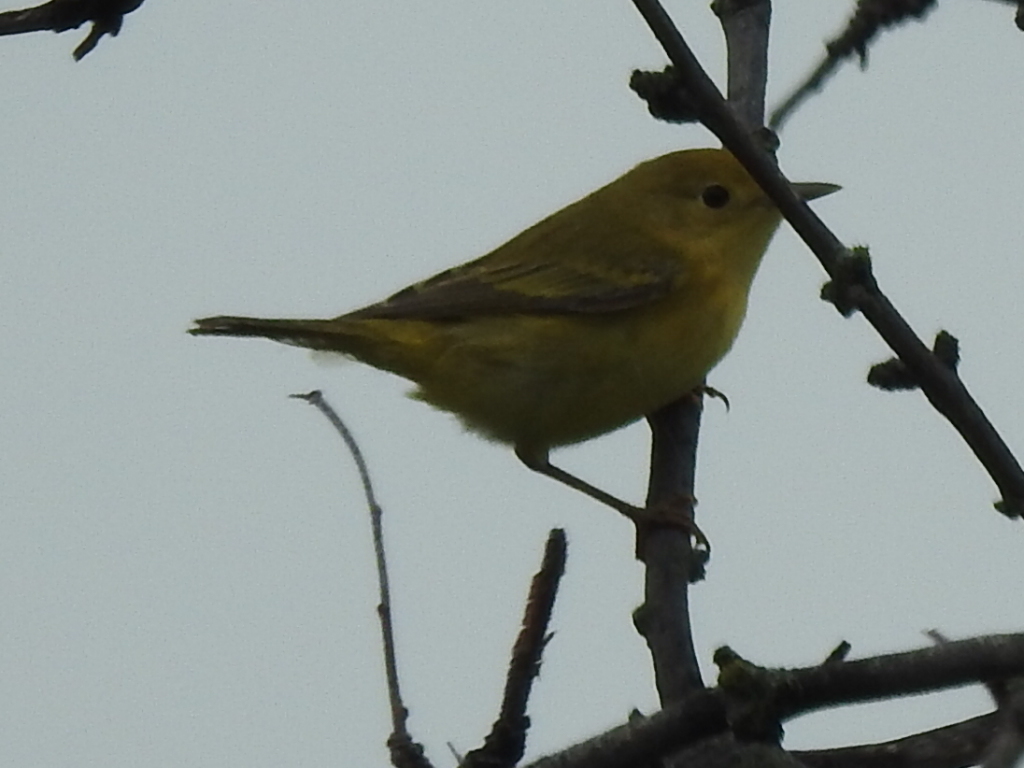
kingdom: Animalia
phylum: Chordata
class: Aves
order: Passeriformes
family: Parulidae
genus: Setophaga
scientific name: Setophaga petechia
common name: Yellow warbler
